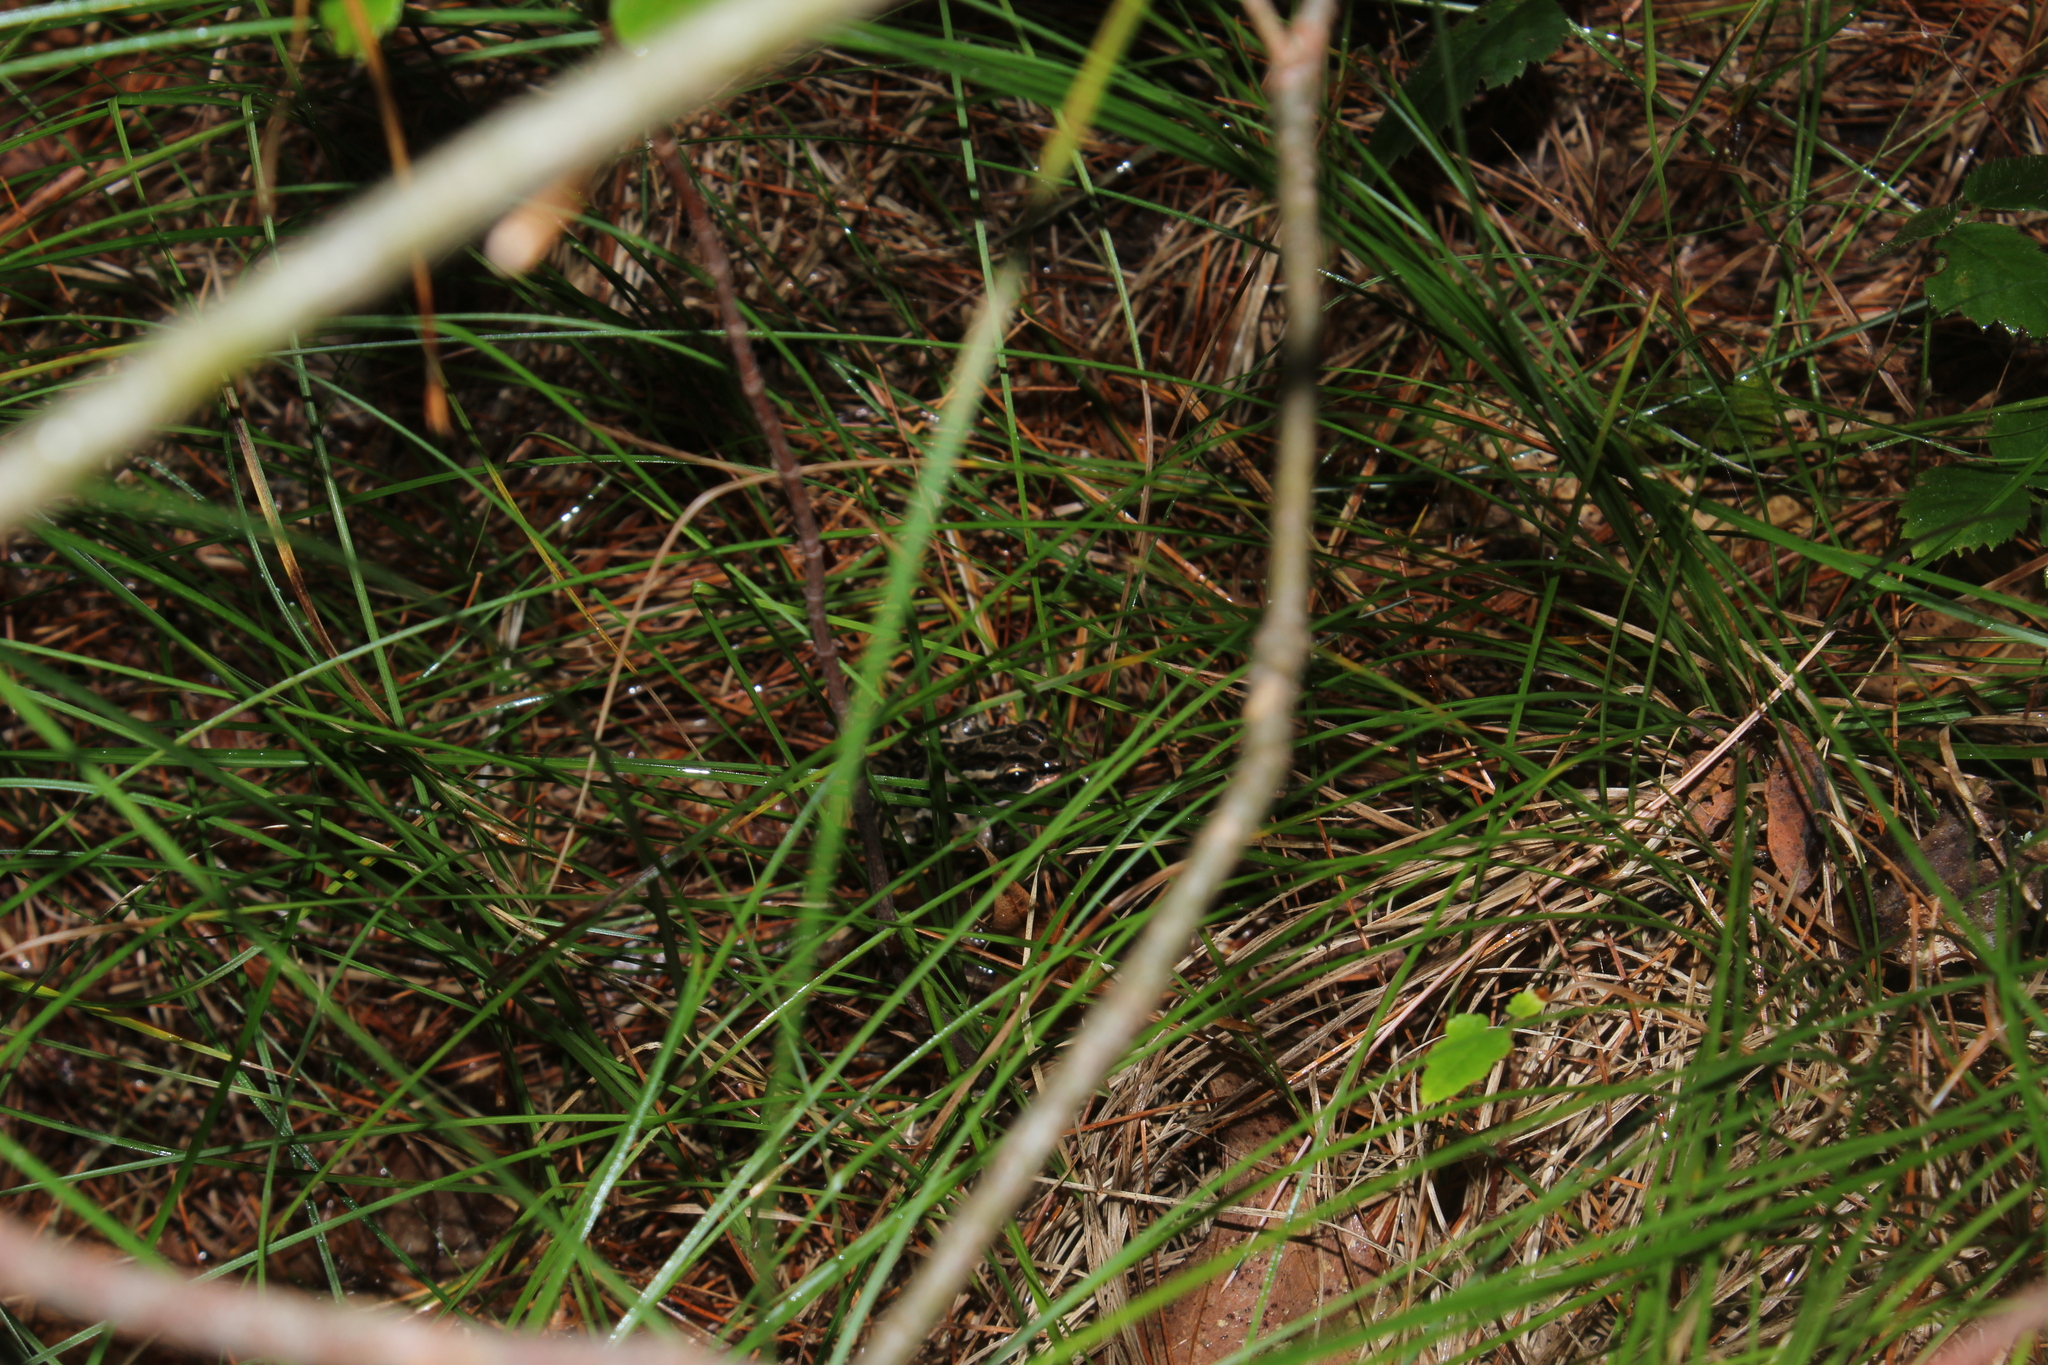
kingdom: Animalia
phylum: Chordata
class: Amphibia
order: Anura
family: Ranidae
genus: Lithobates
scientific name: Lithobates palustris
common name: Pickerel frog
